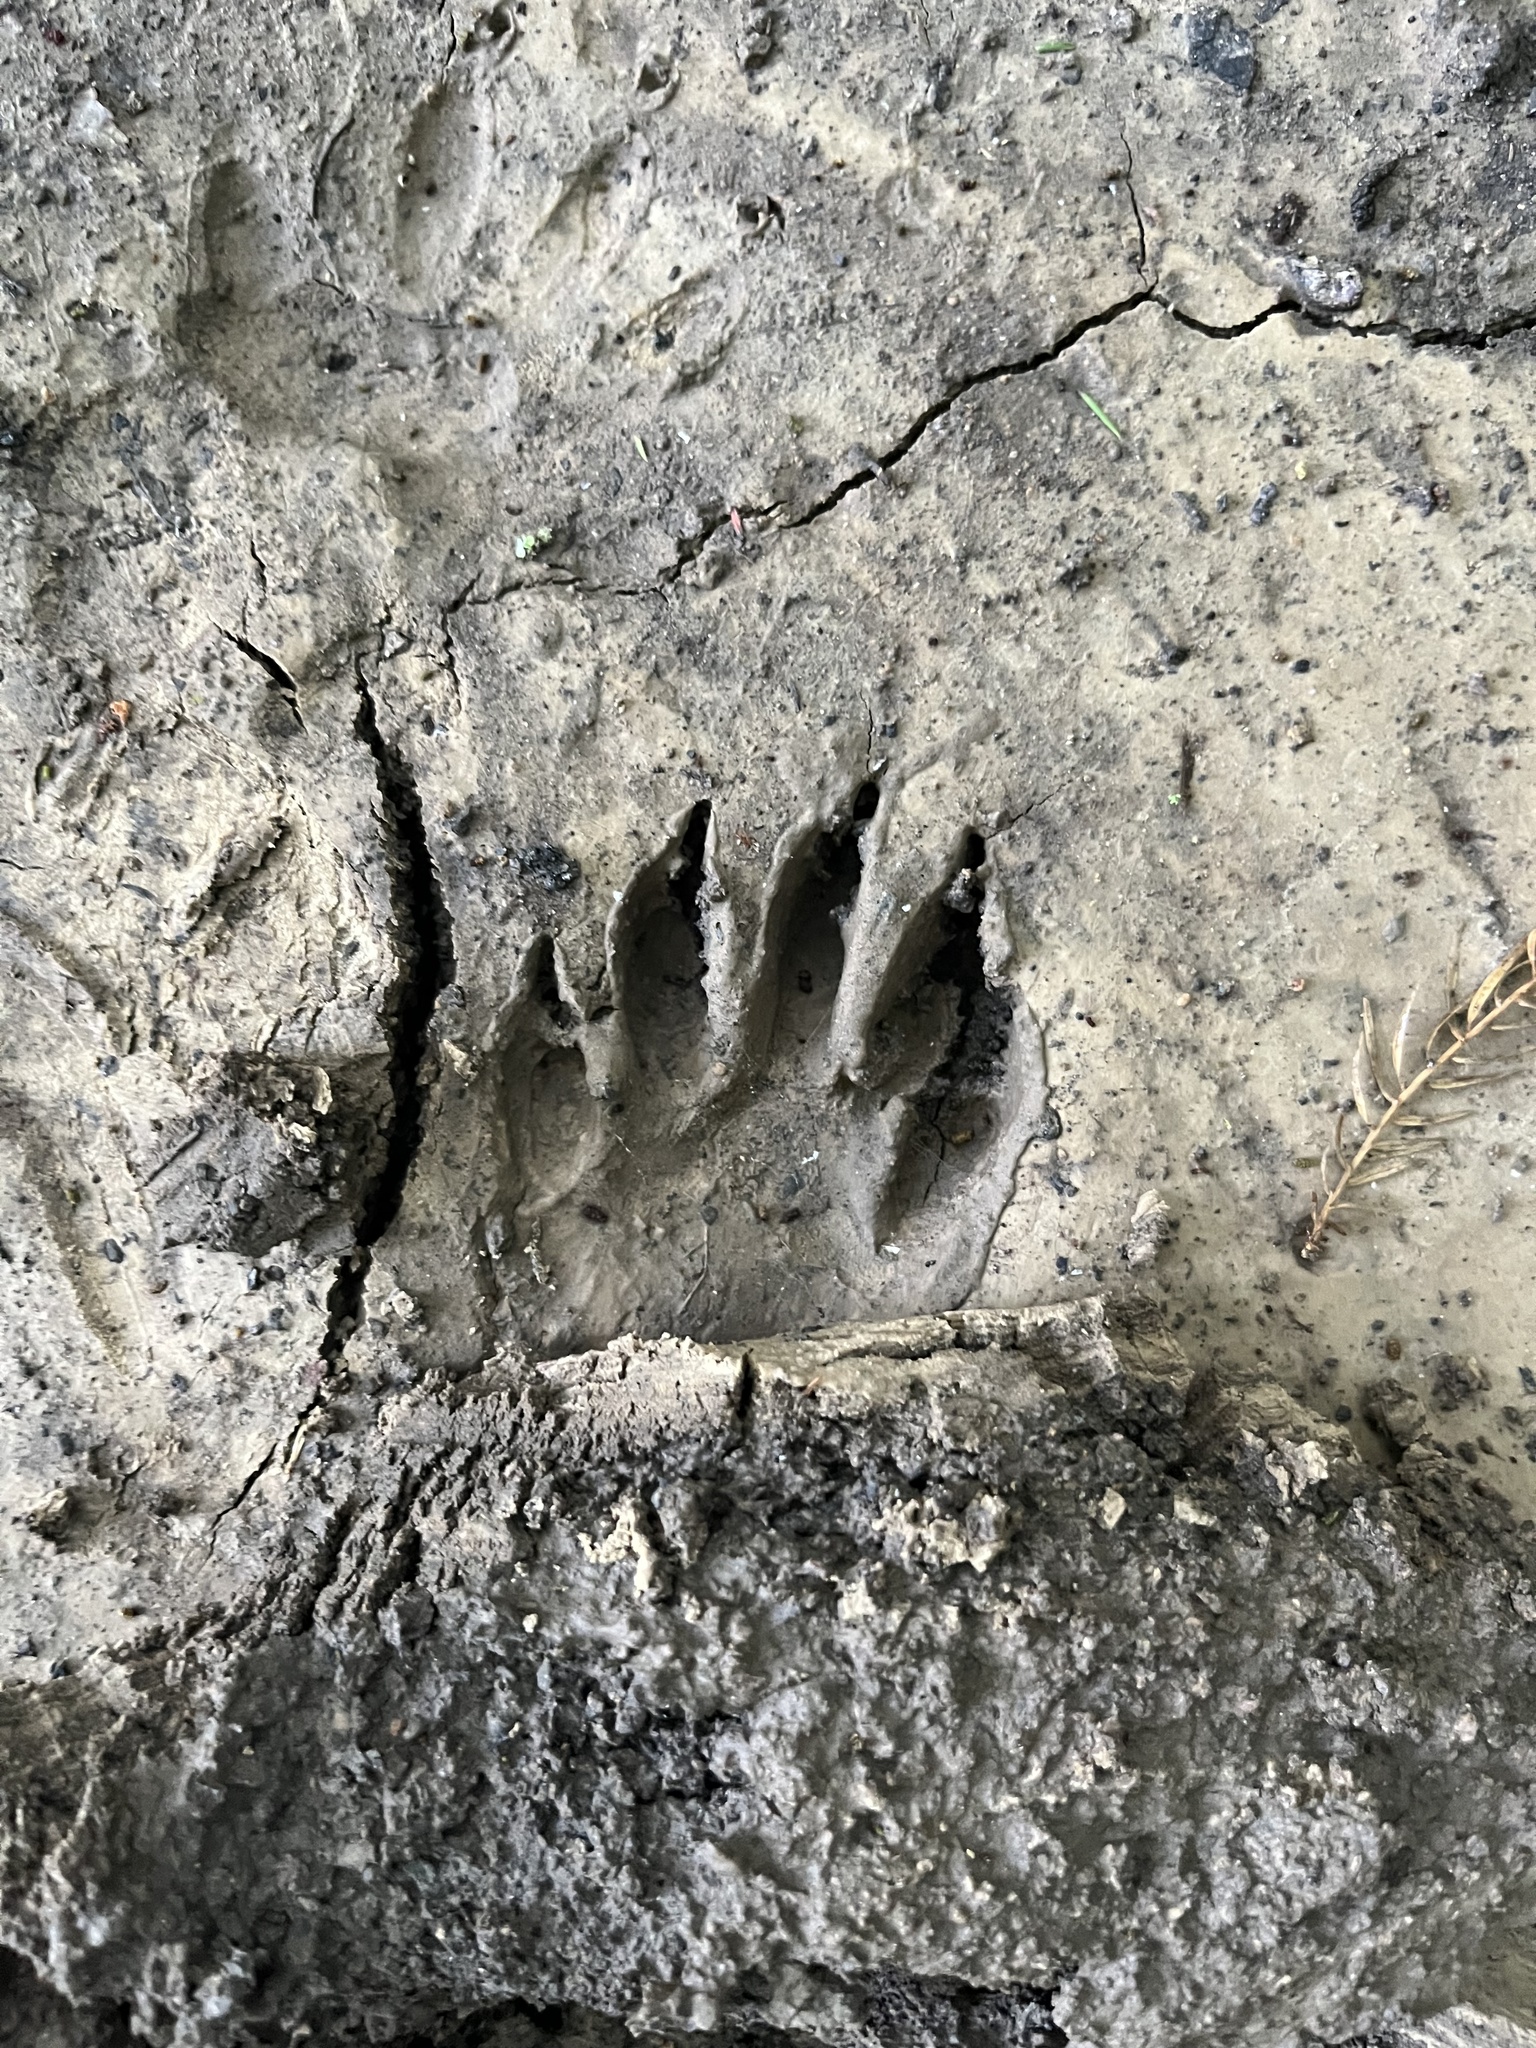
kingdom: Animalia
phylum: Chordata
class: Mammalia
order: Carnivora
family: Procyonidae
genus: Procyon
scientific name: Procyon lotor
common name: Raccoon
